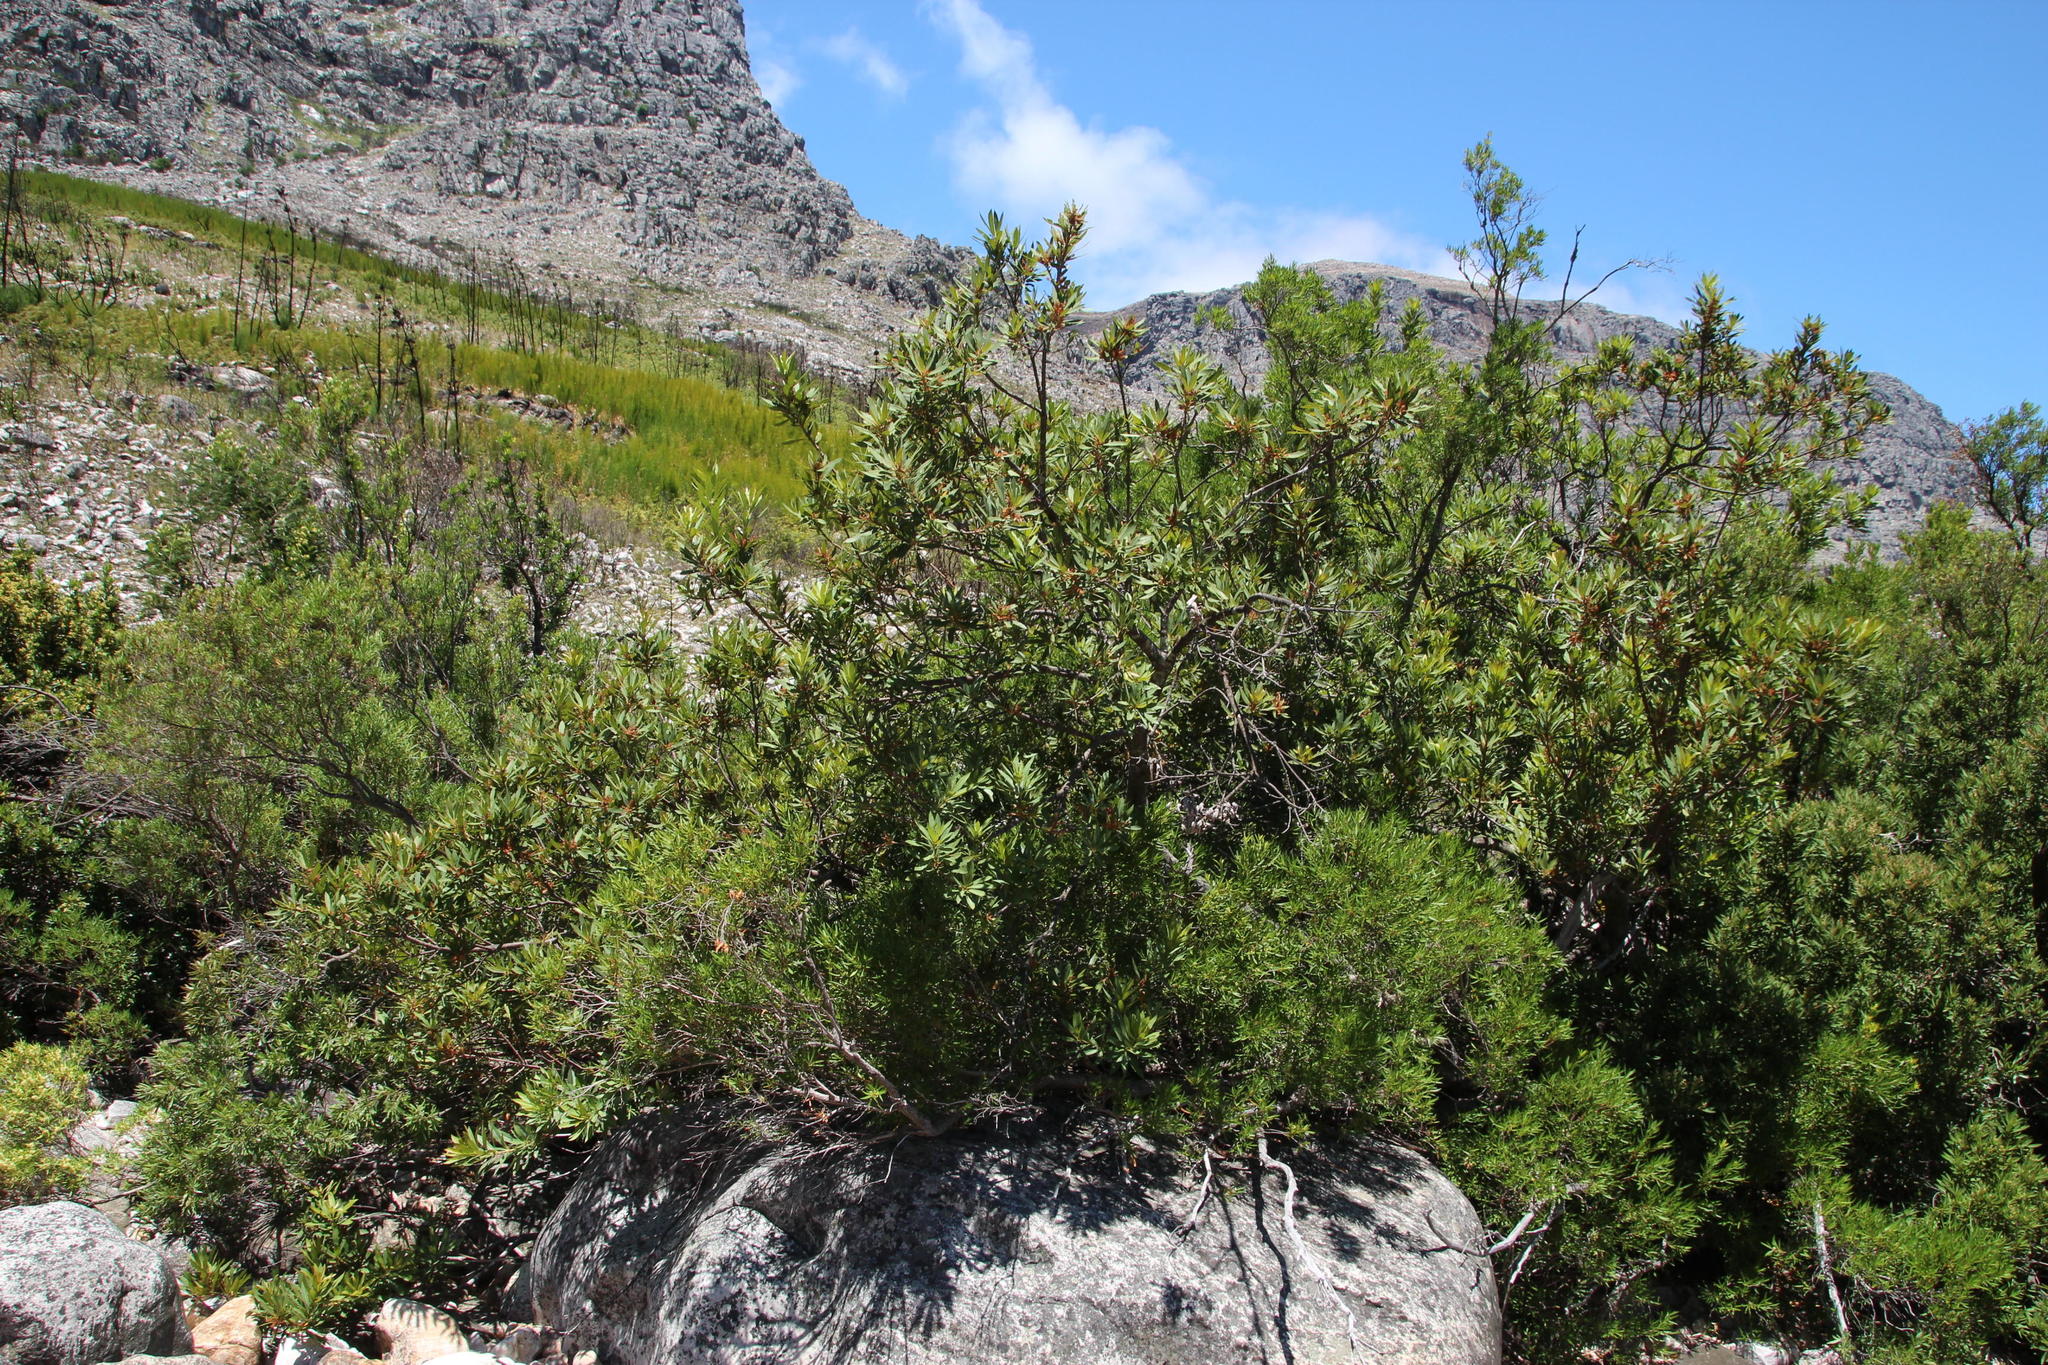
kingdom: Plantae
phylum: Tracheophyta
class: Magnoliopsida
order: Proteales
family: Proteaceae
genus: Brabejum
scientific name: Brabejum stellatifolium
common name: Wild almond
